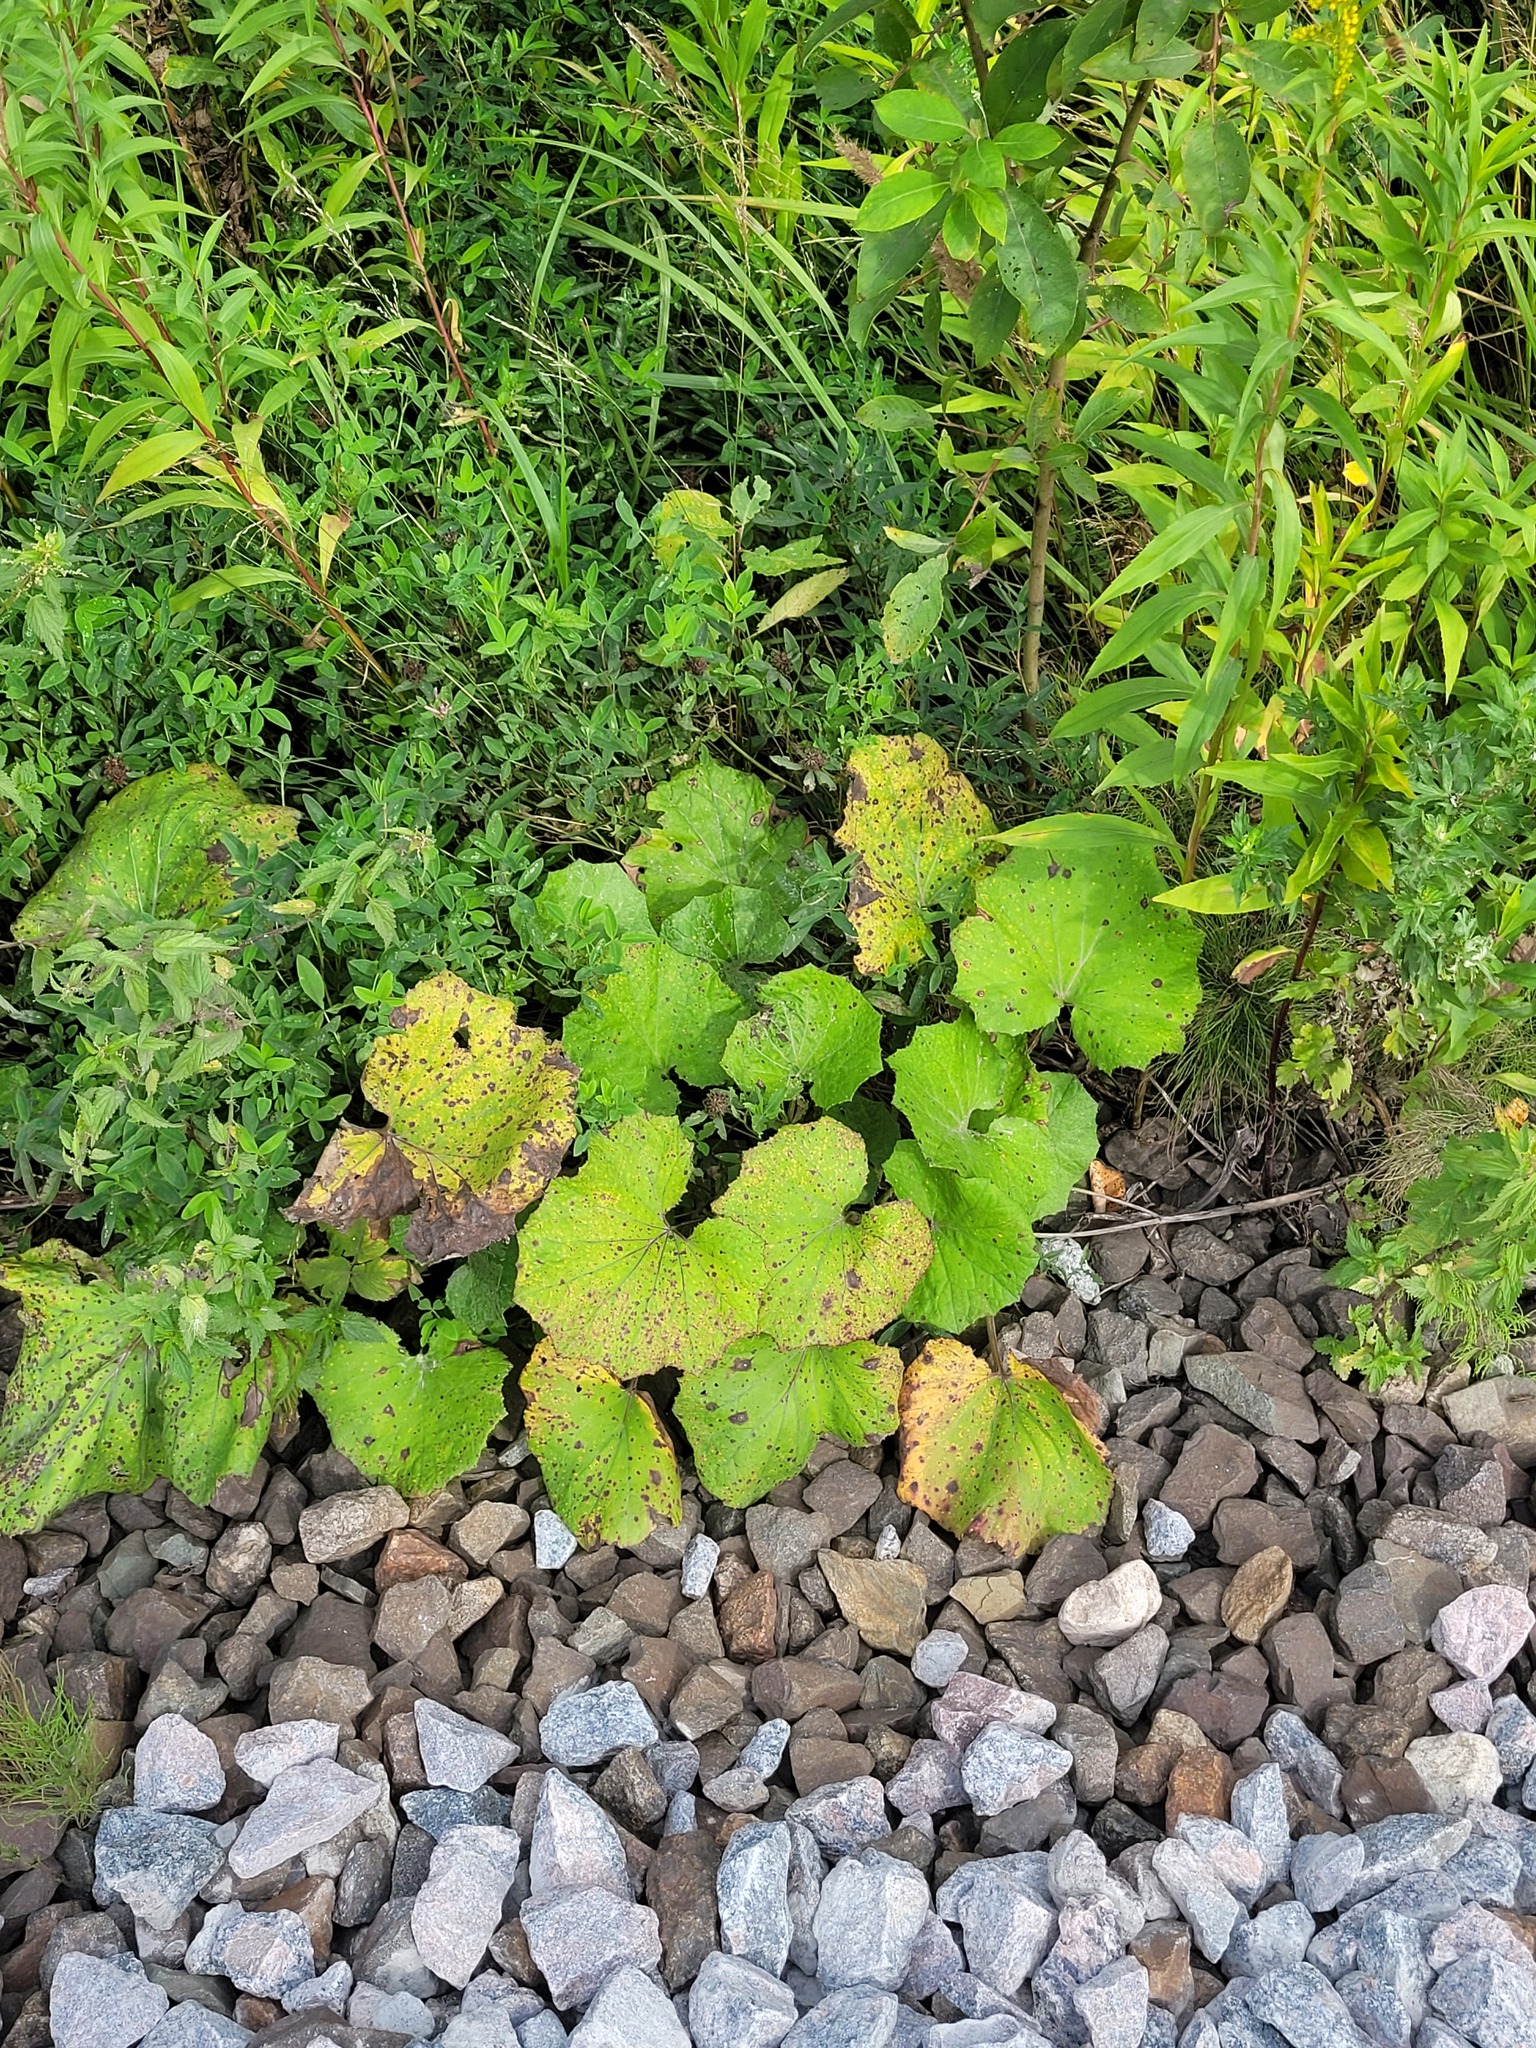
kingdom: Plantae
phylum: Tracheophyta
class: Magnoliopsida
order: Asterales
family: Asteraceae
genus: Tussilago
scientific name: Tussilago farfara
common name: Coltsfoot
